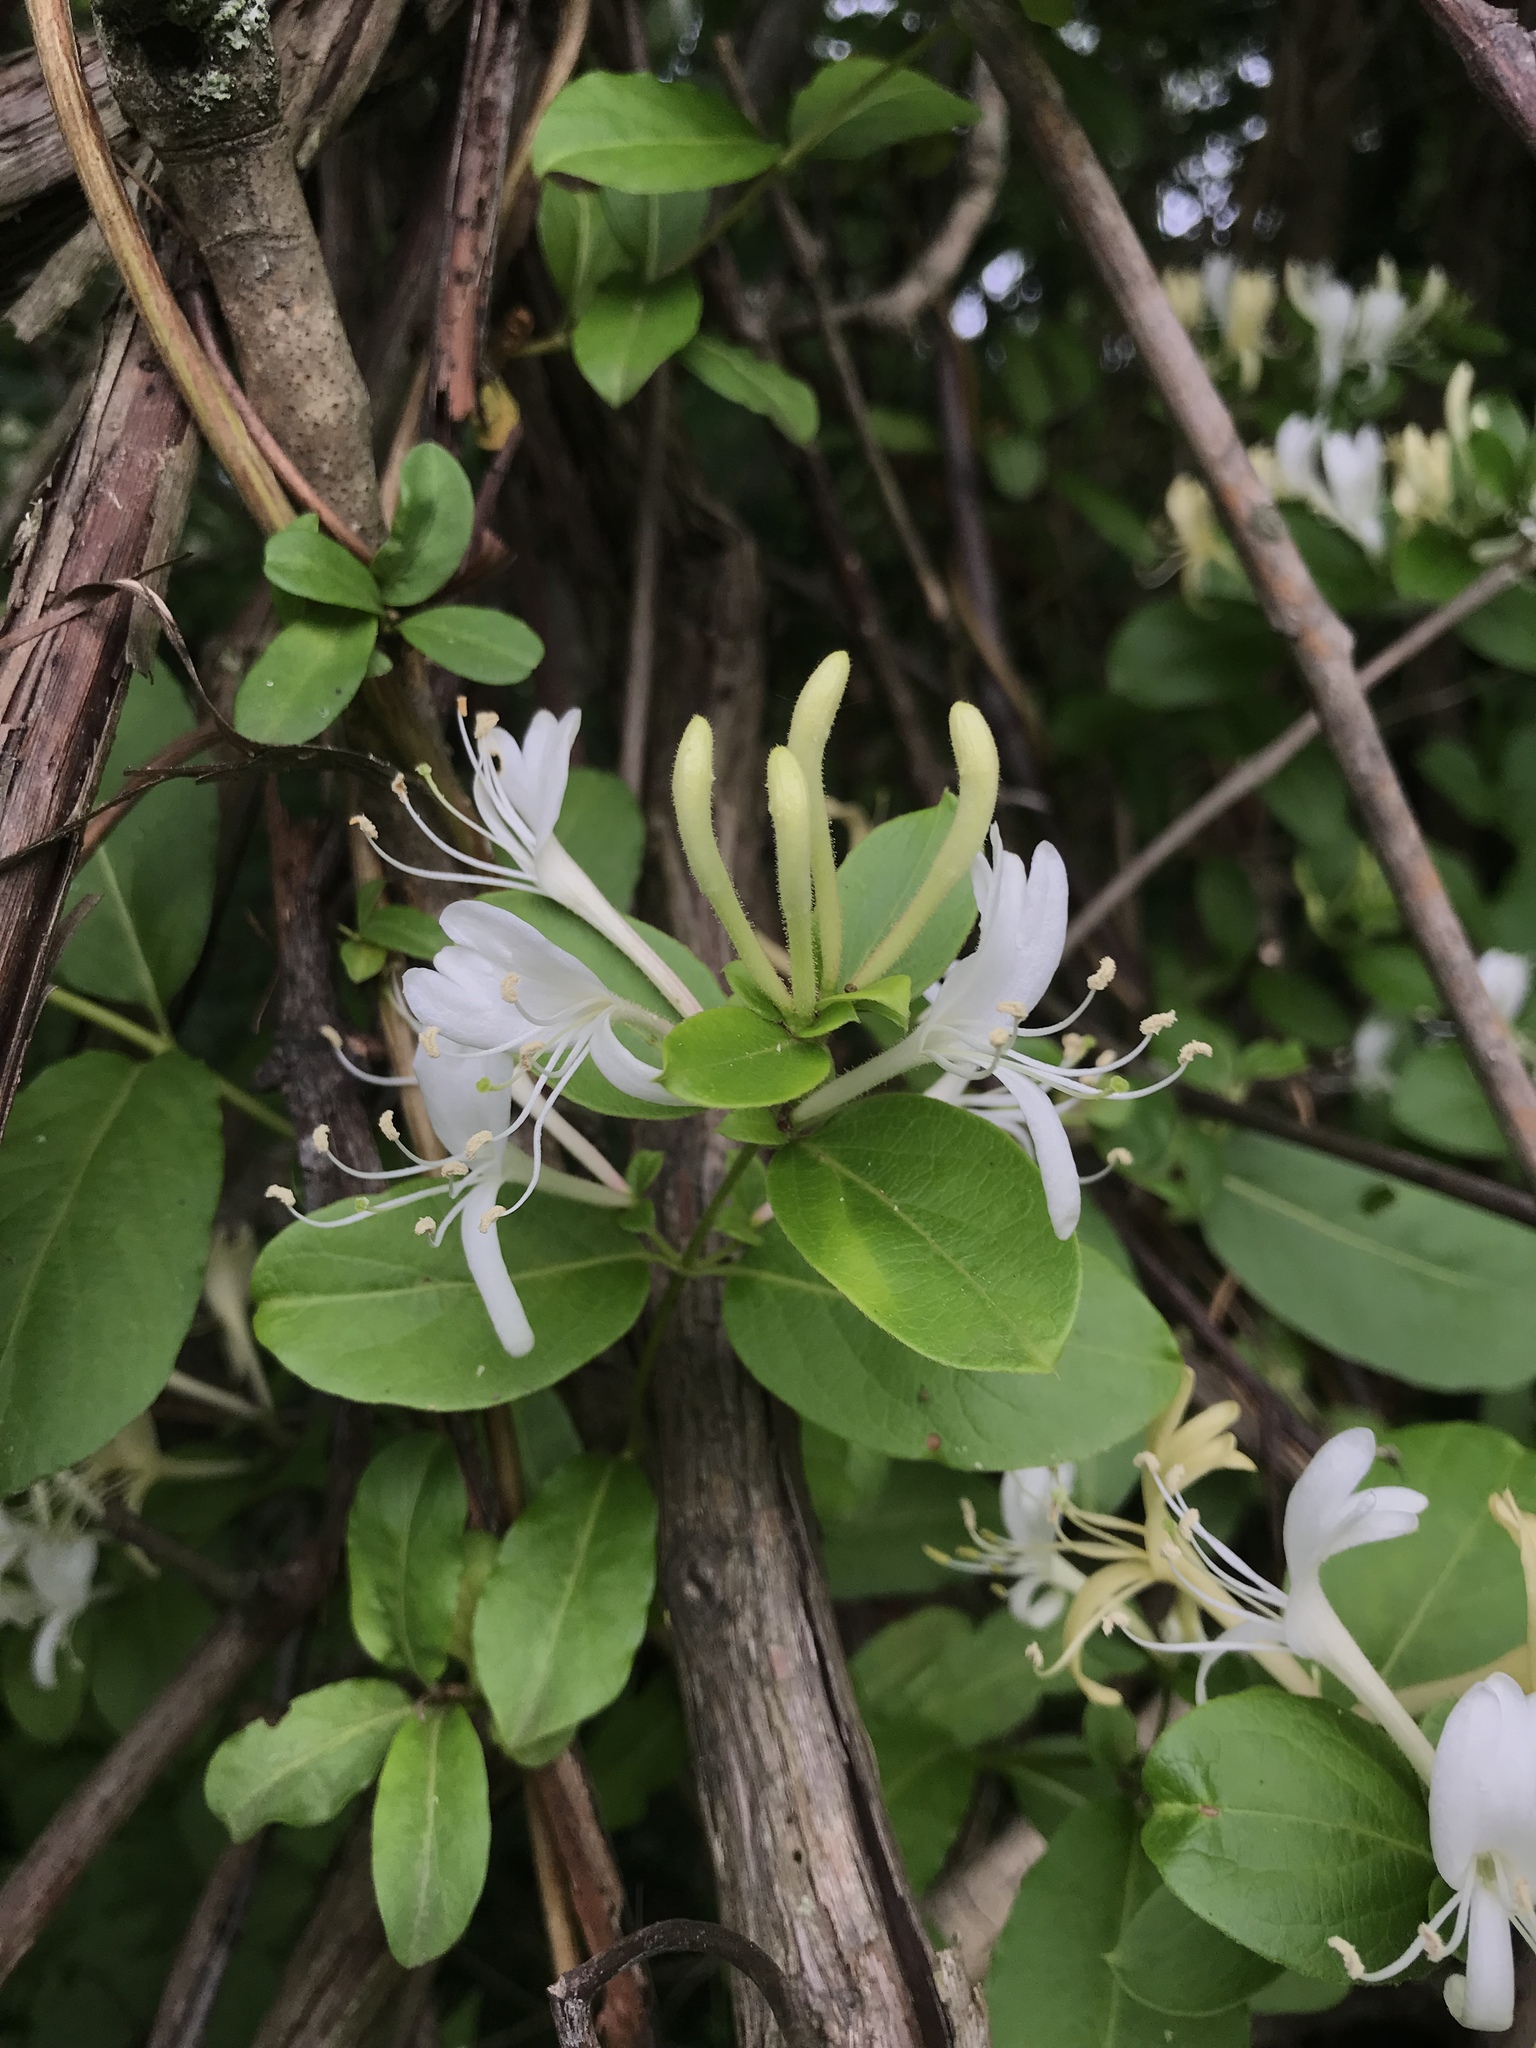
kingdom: Plantae
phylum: Tracheophyta
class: Magnoliopsida
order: Dipsacales
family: Caprifoliaceae
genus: Lonicera
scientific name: Lonicera japonica
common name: Japanese honeysuckle
